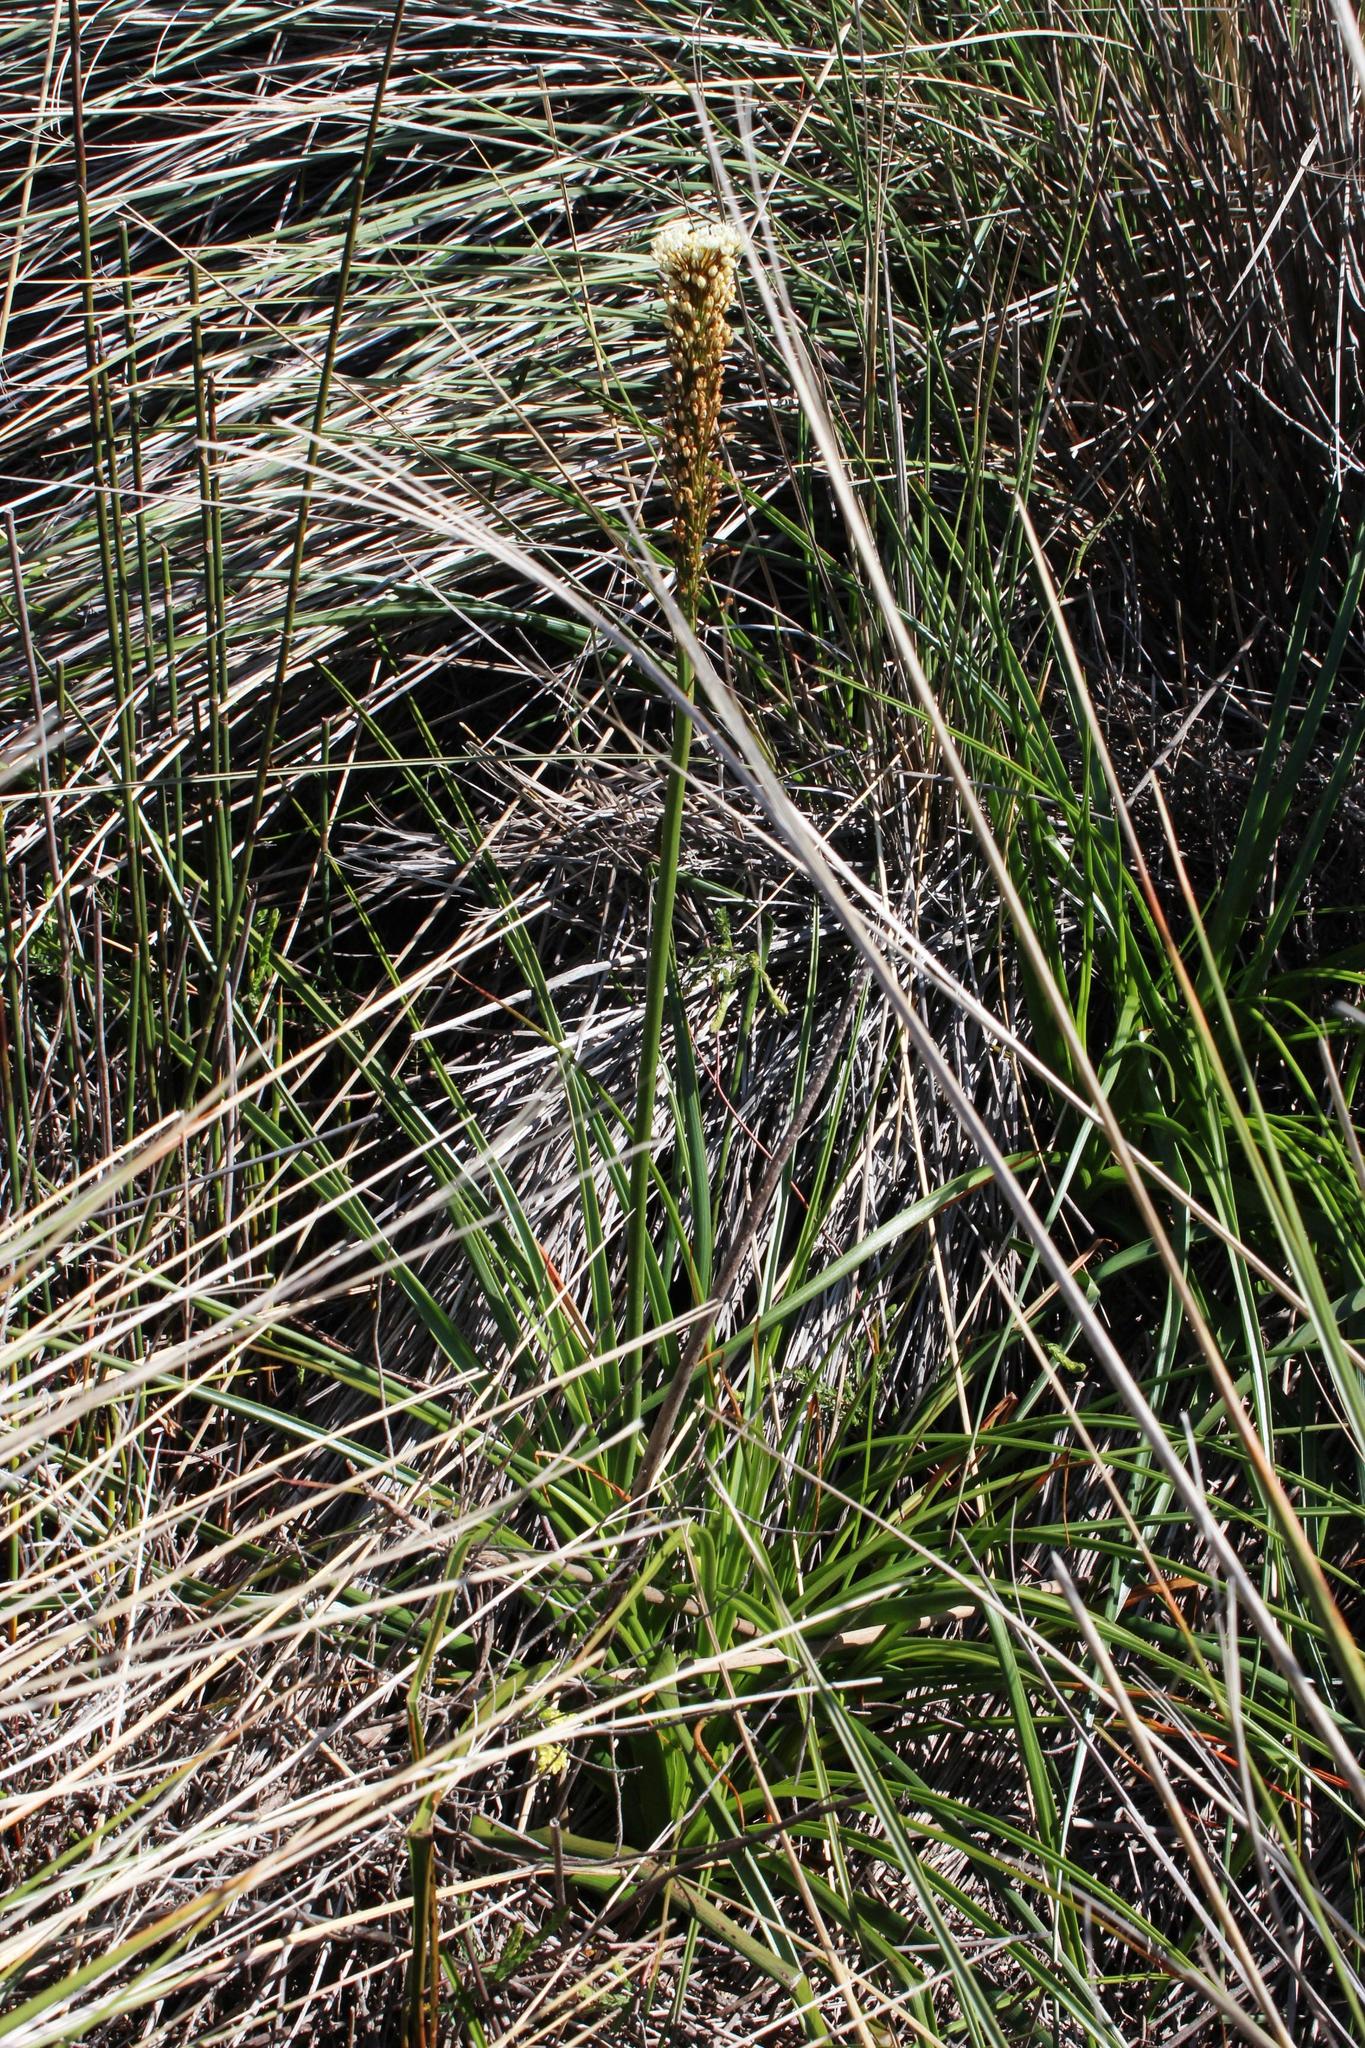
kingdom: Plantae
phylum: Tracheophyta
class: Liliopsida
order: Asparagales
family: Asphodelaceae
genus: Bulbinella
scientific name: Bulbinella nutans
